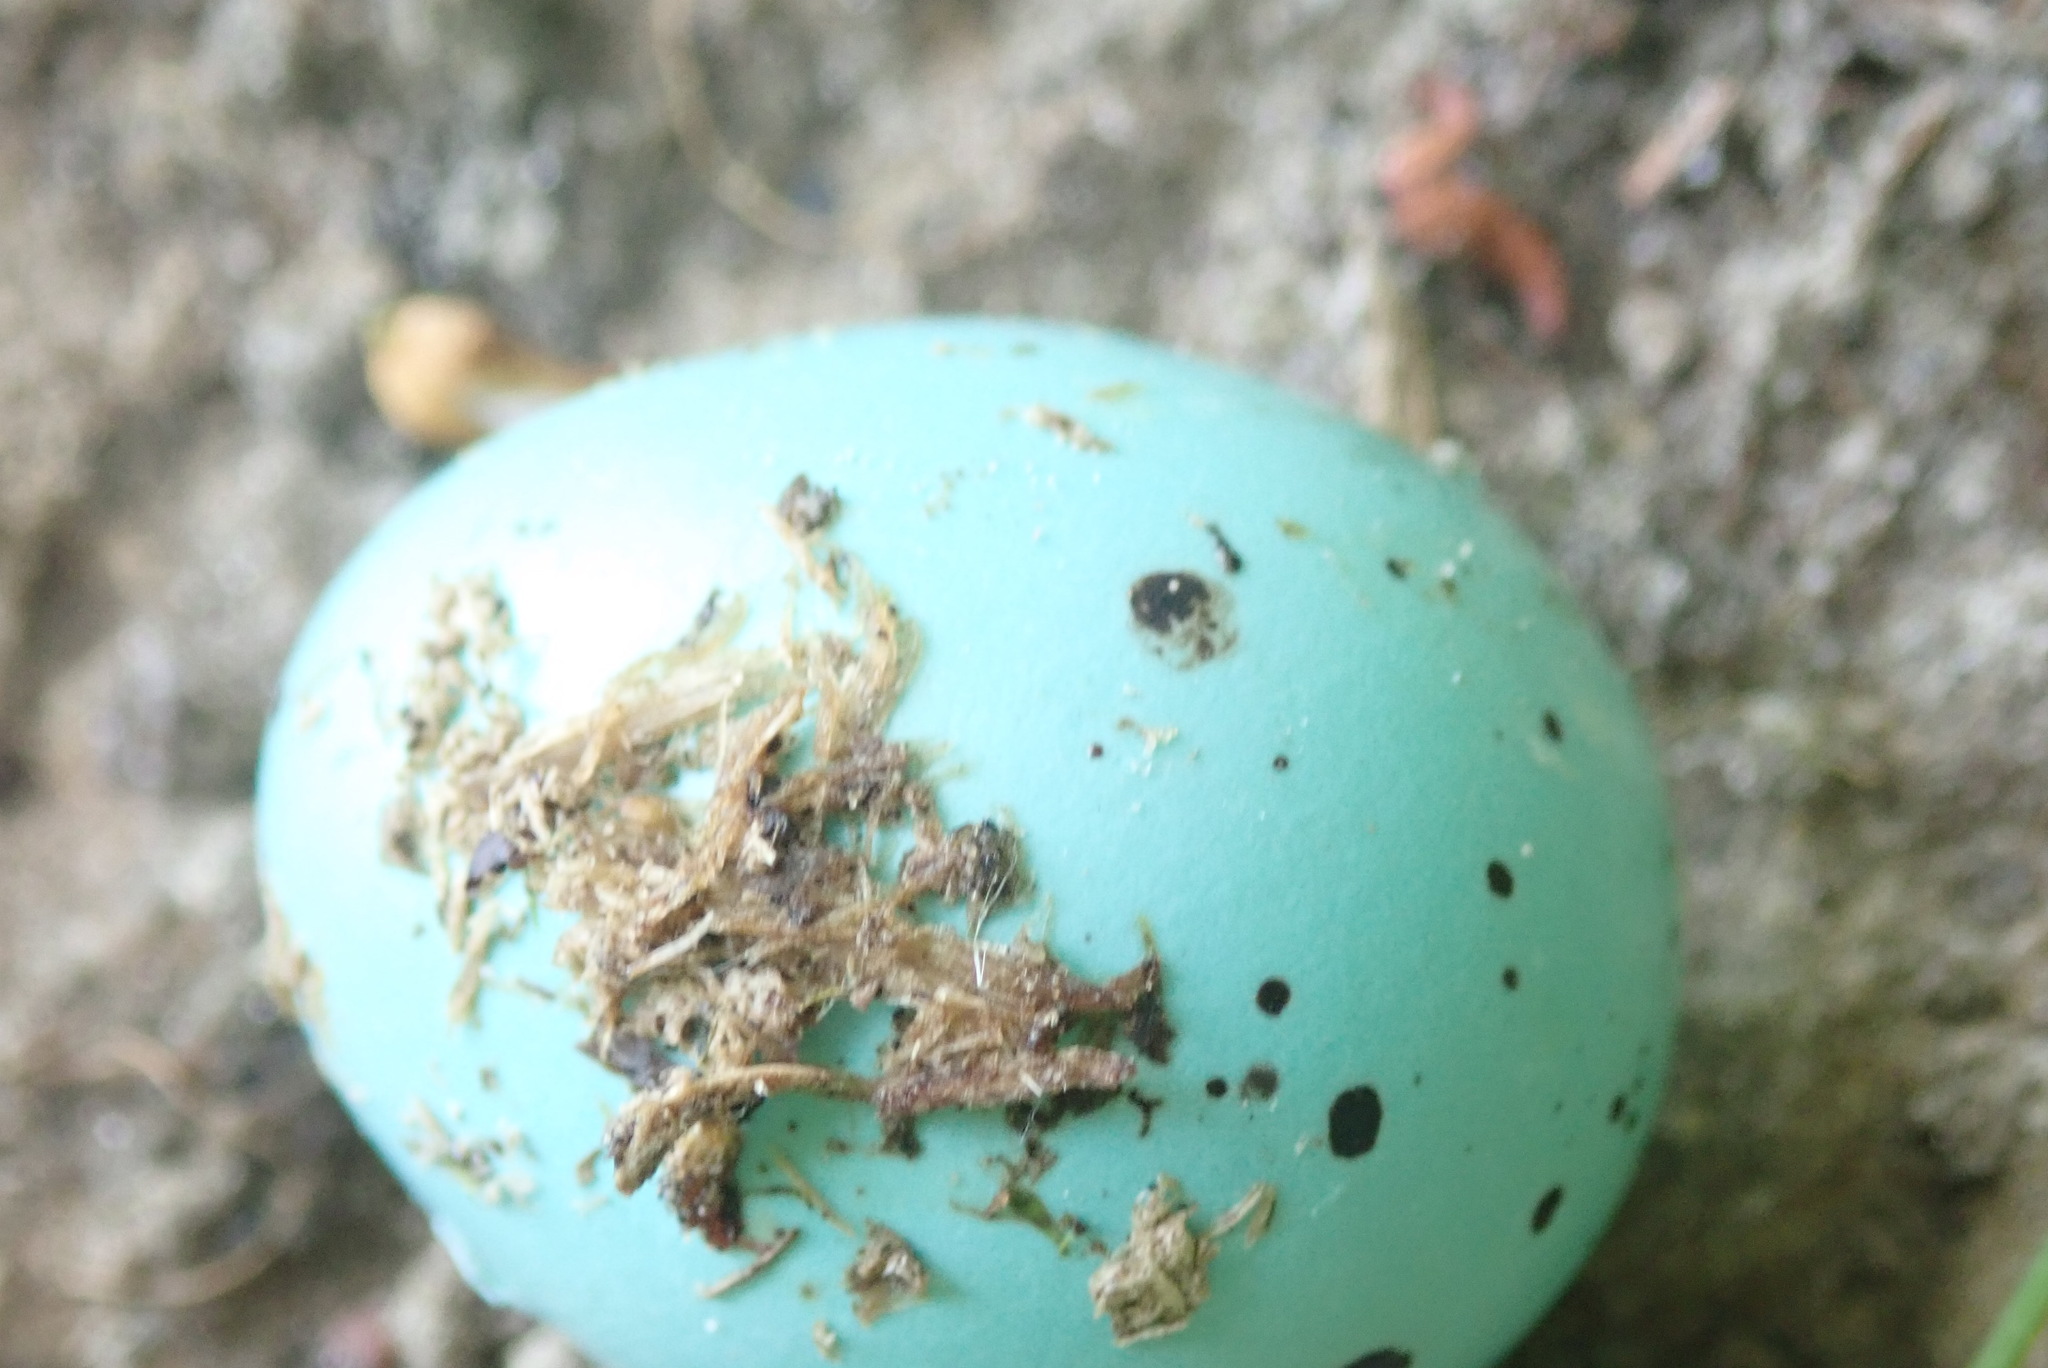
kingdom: Animalia
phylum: Chordata
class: Aves
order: Passeriformes
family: Turdidae
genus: Turdus
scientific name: Turdus merula
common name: Common blackbird
